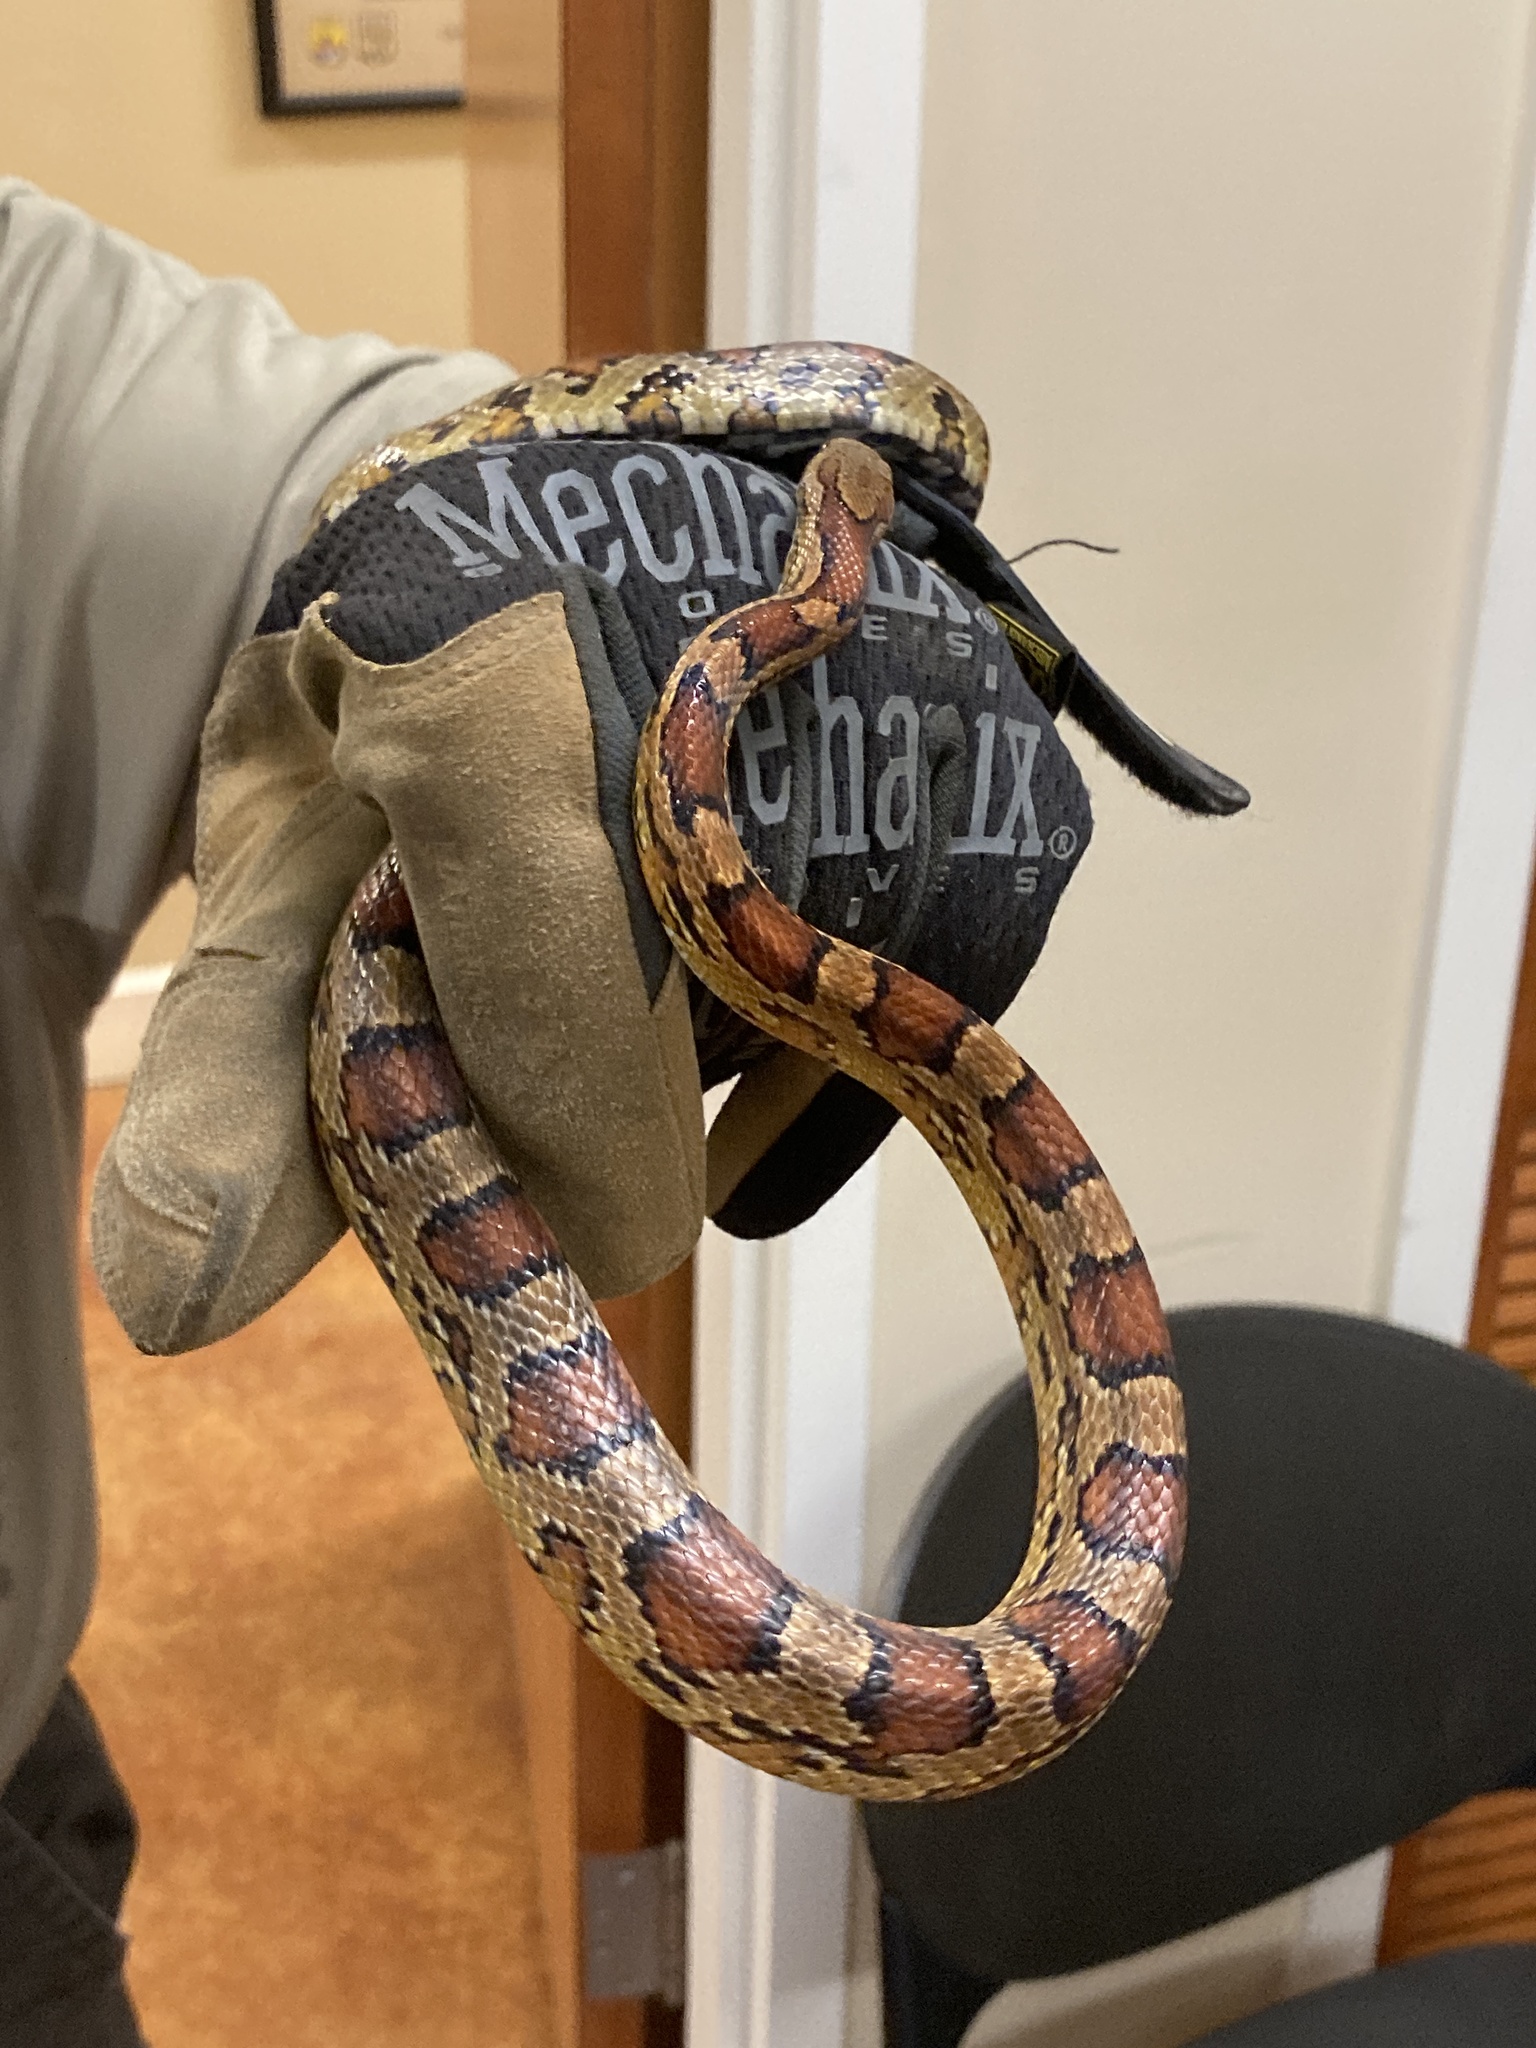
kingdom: Animalia
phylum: Chordata
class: Squamata
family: Colubridae
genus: Pantherophis
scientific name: Pantherophis guttatus
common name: Red cornsnake
